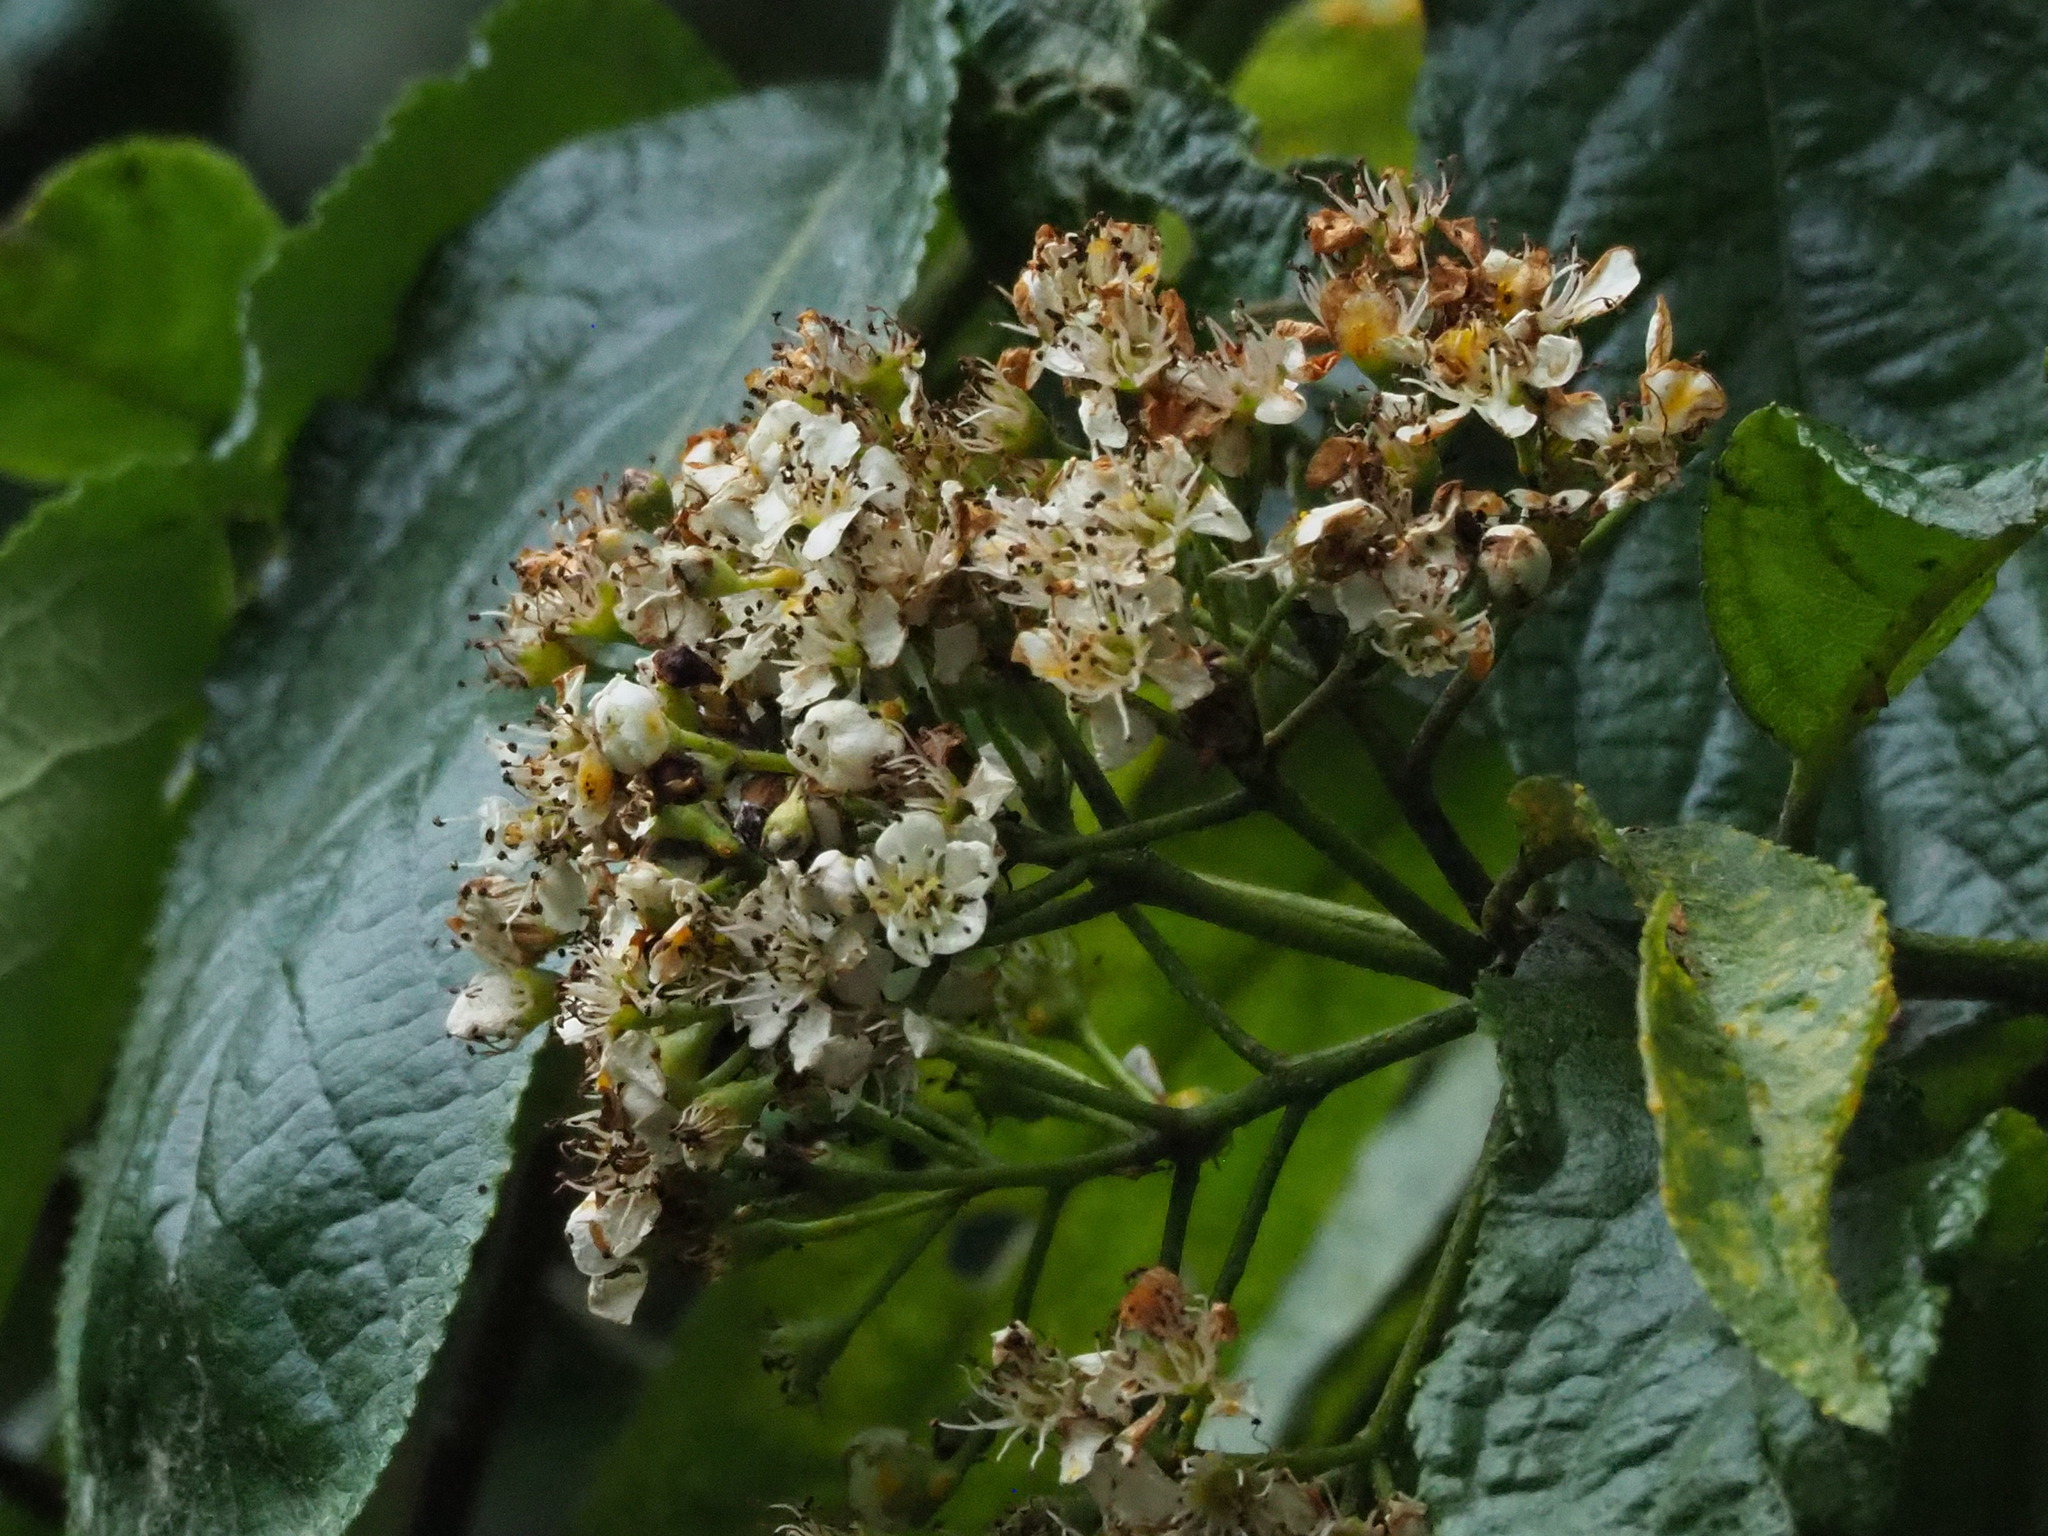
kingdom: Plantae
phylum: Tracheophyta
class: Magnoliopsida
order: Rosales
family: Rosaceae
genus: Pourthiaea
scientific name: Pourthiaea beauverdiana
